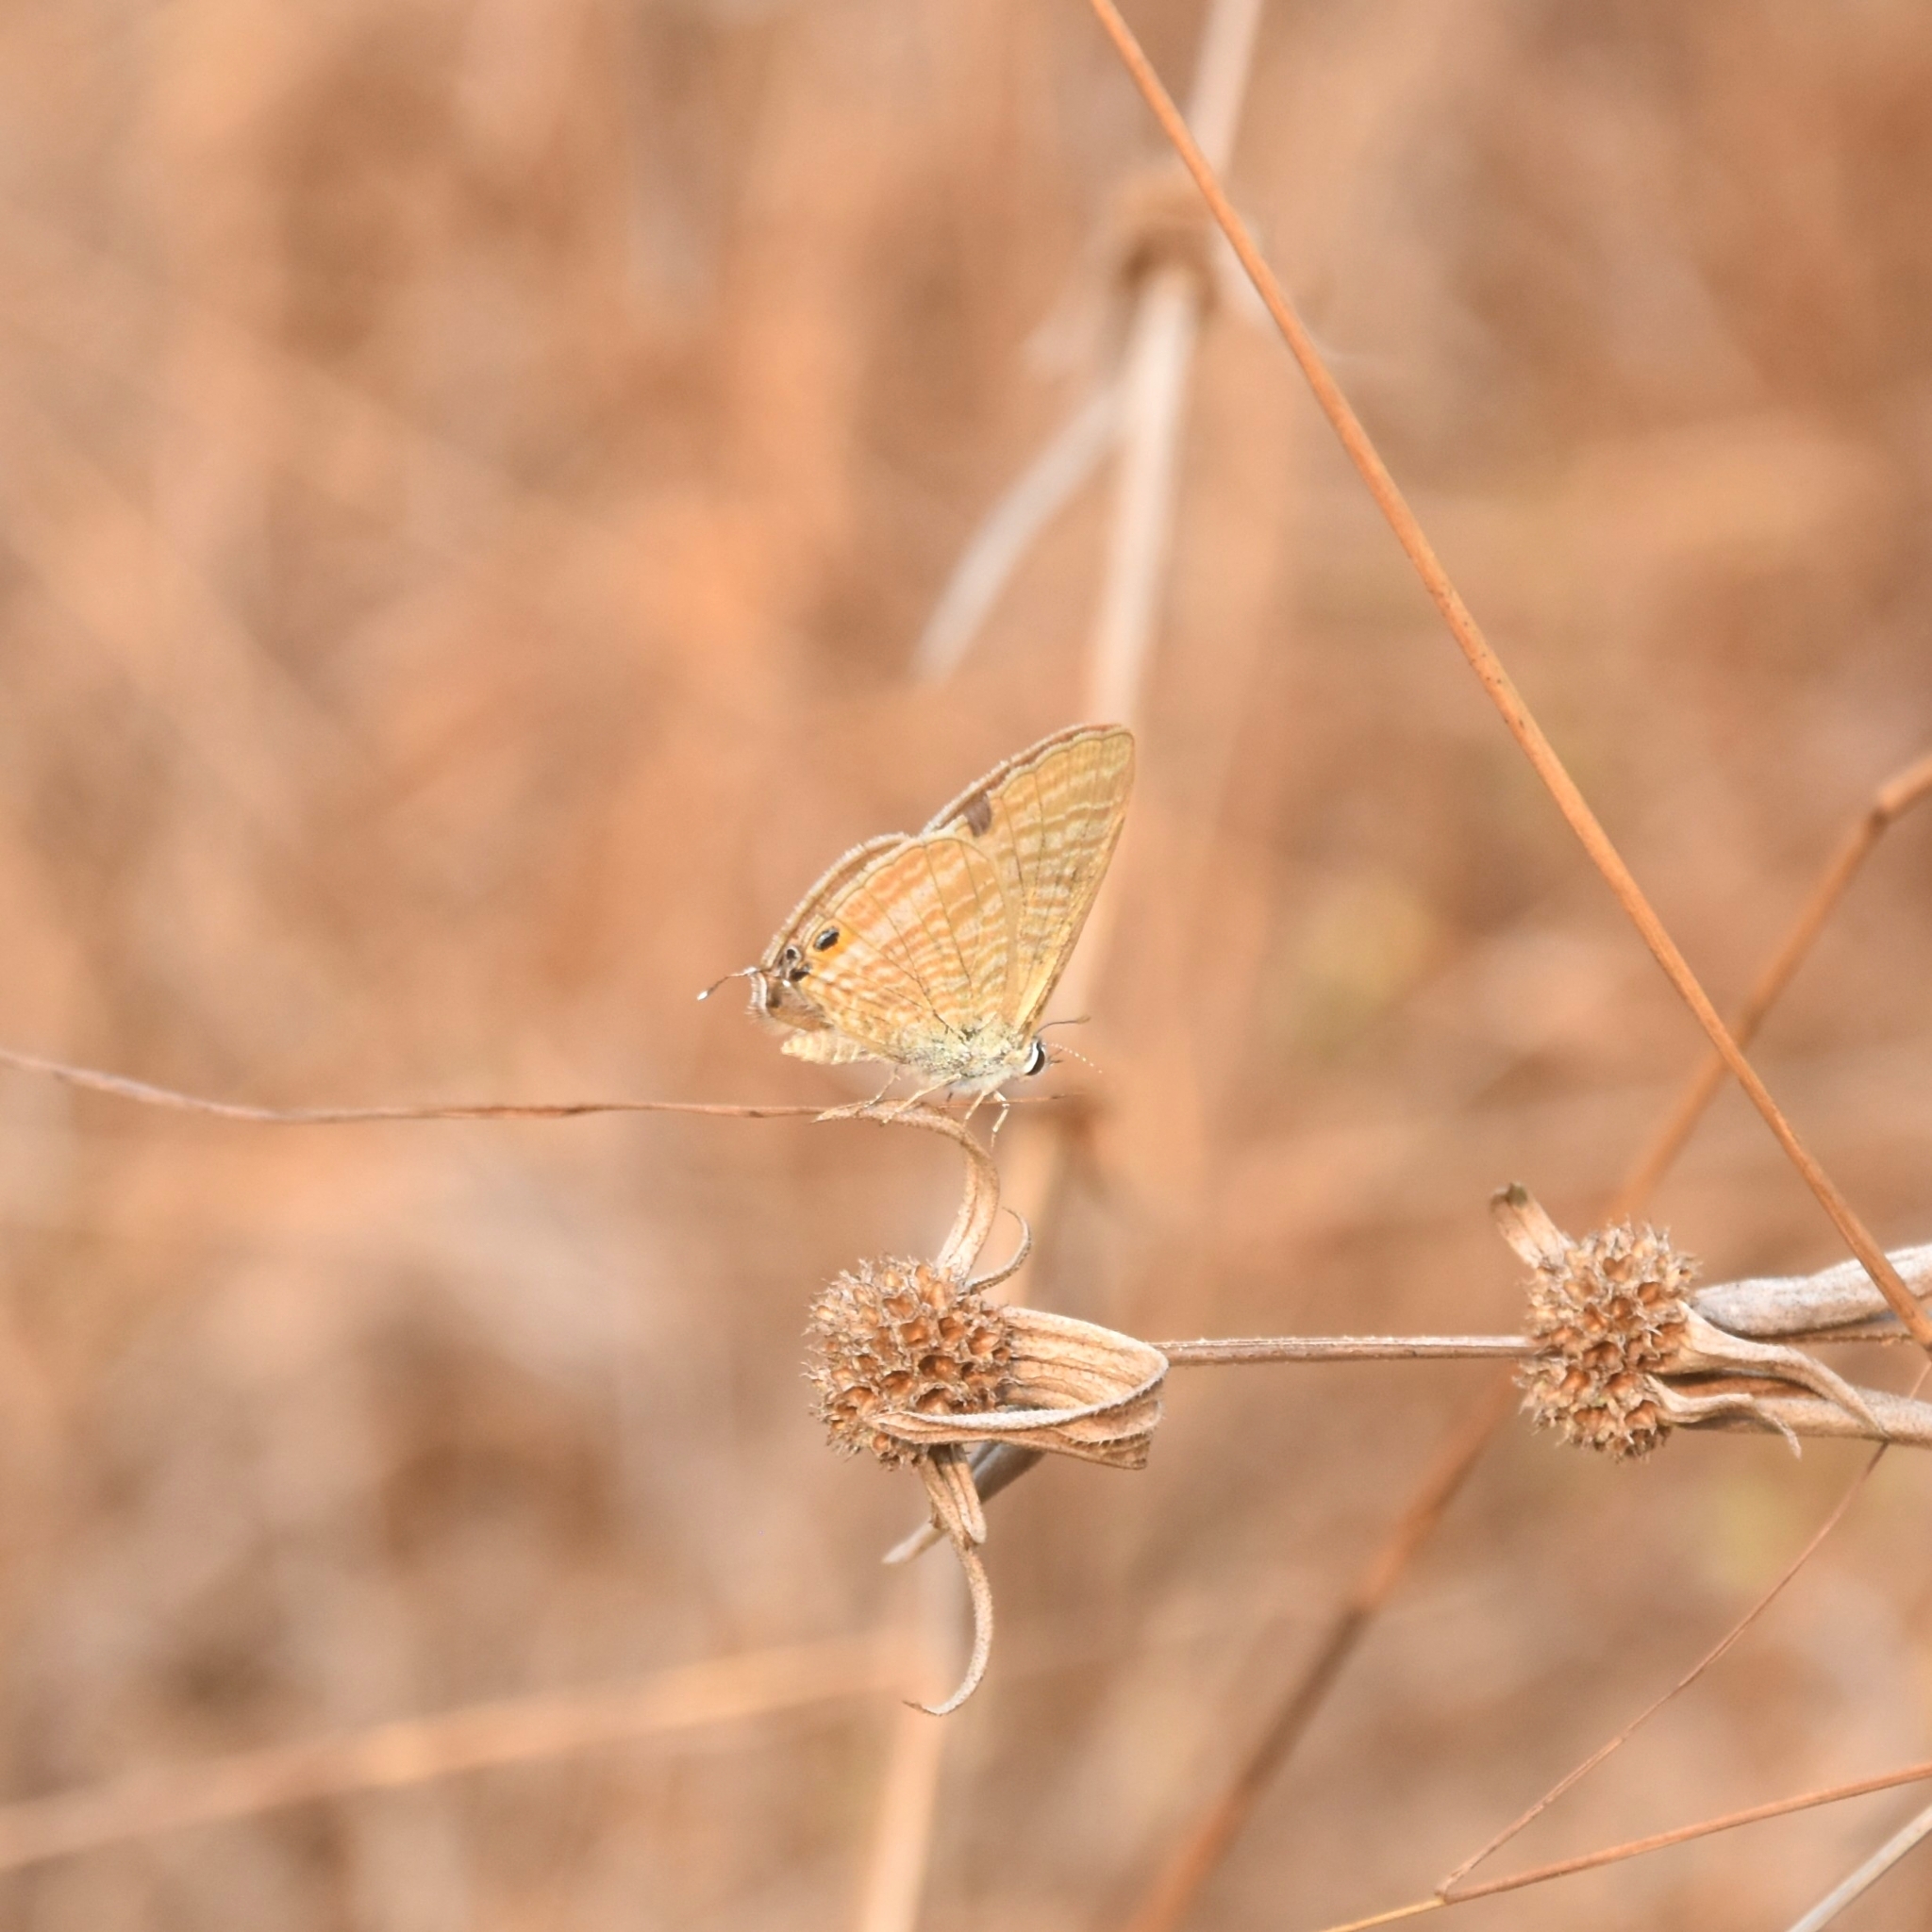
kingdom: Animalia
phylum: Arthropoda
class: Insecta
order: Lepidoptera
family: Lycaenidae
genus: Lampides
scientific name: Lampides boeticus
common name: Long-tailed blue
